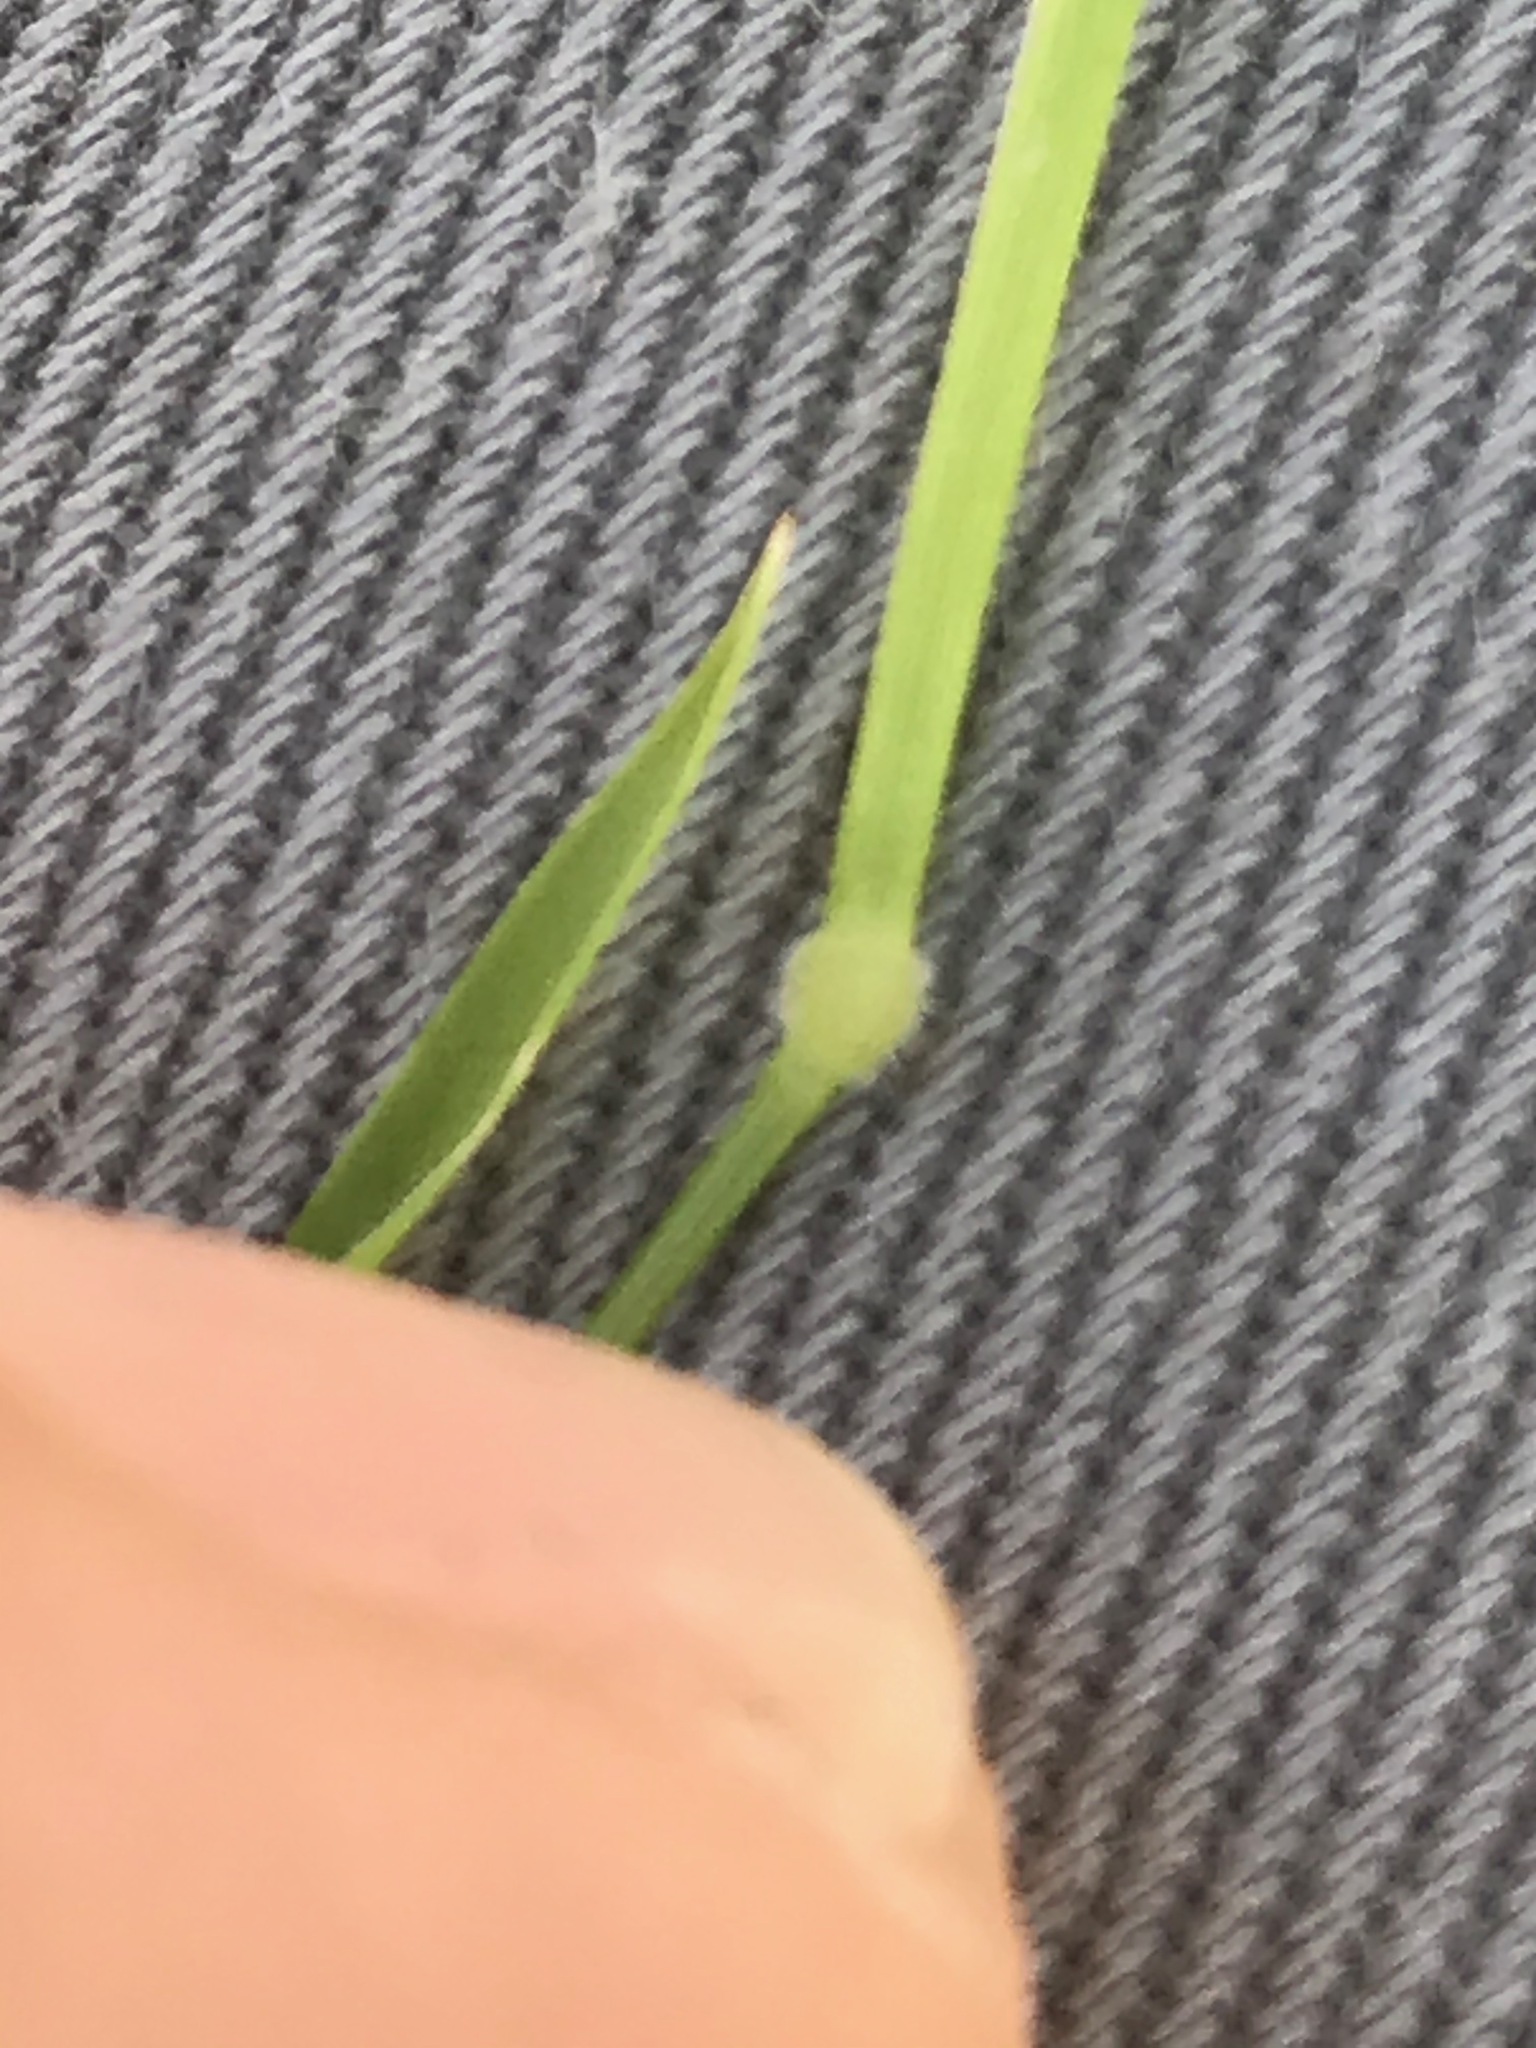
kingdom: Plantae
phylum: Tracheophyta
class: Liliopsida
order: Poales
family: Poaceae
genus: Brachypodium
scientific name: Brachypodium distachyon
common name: Stiff brome
